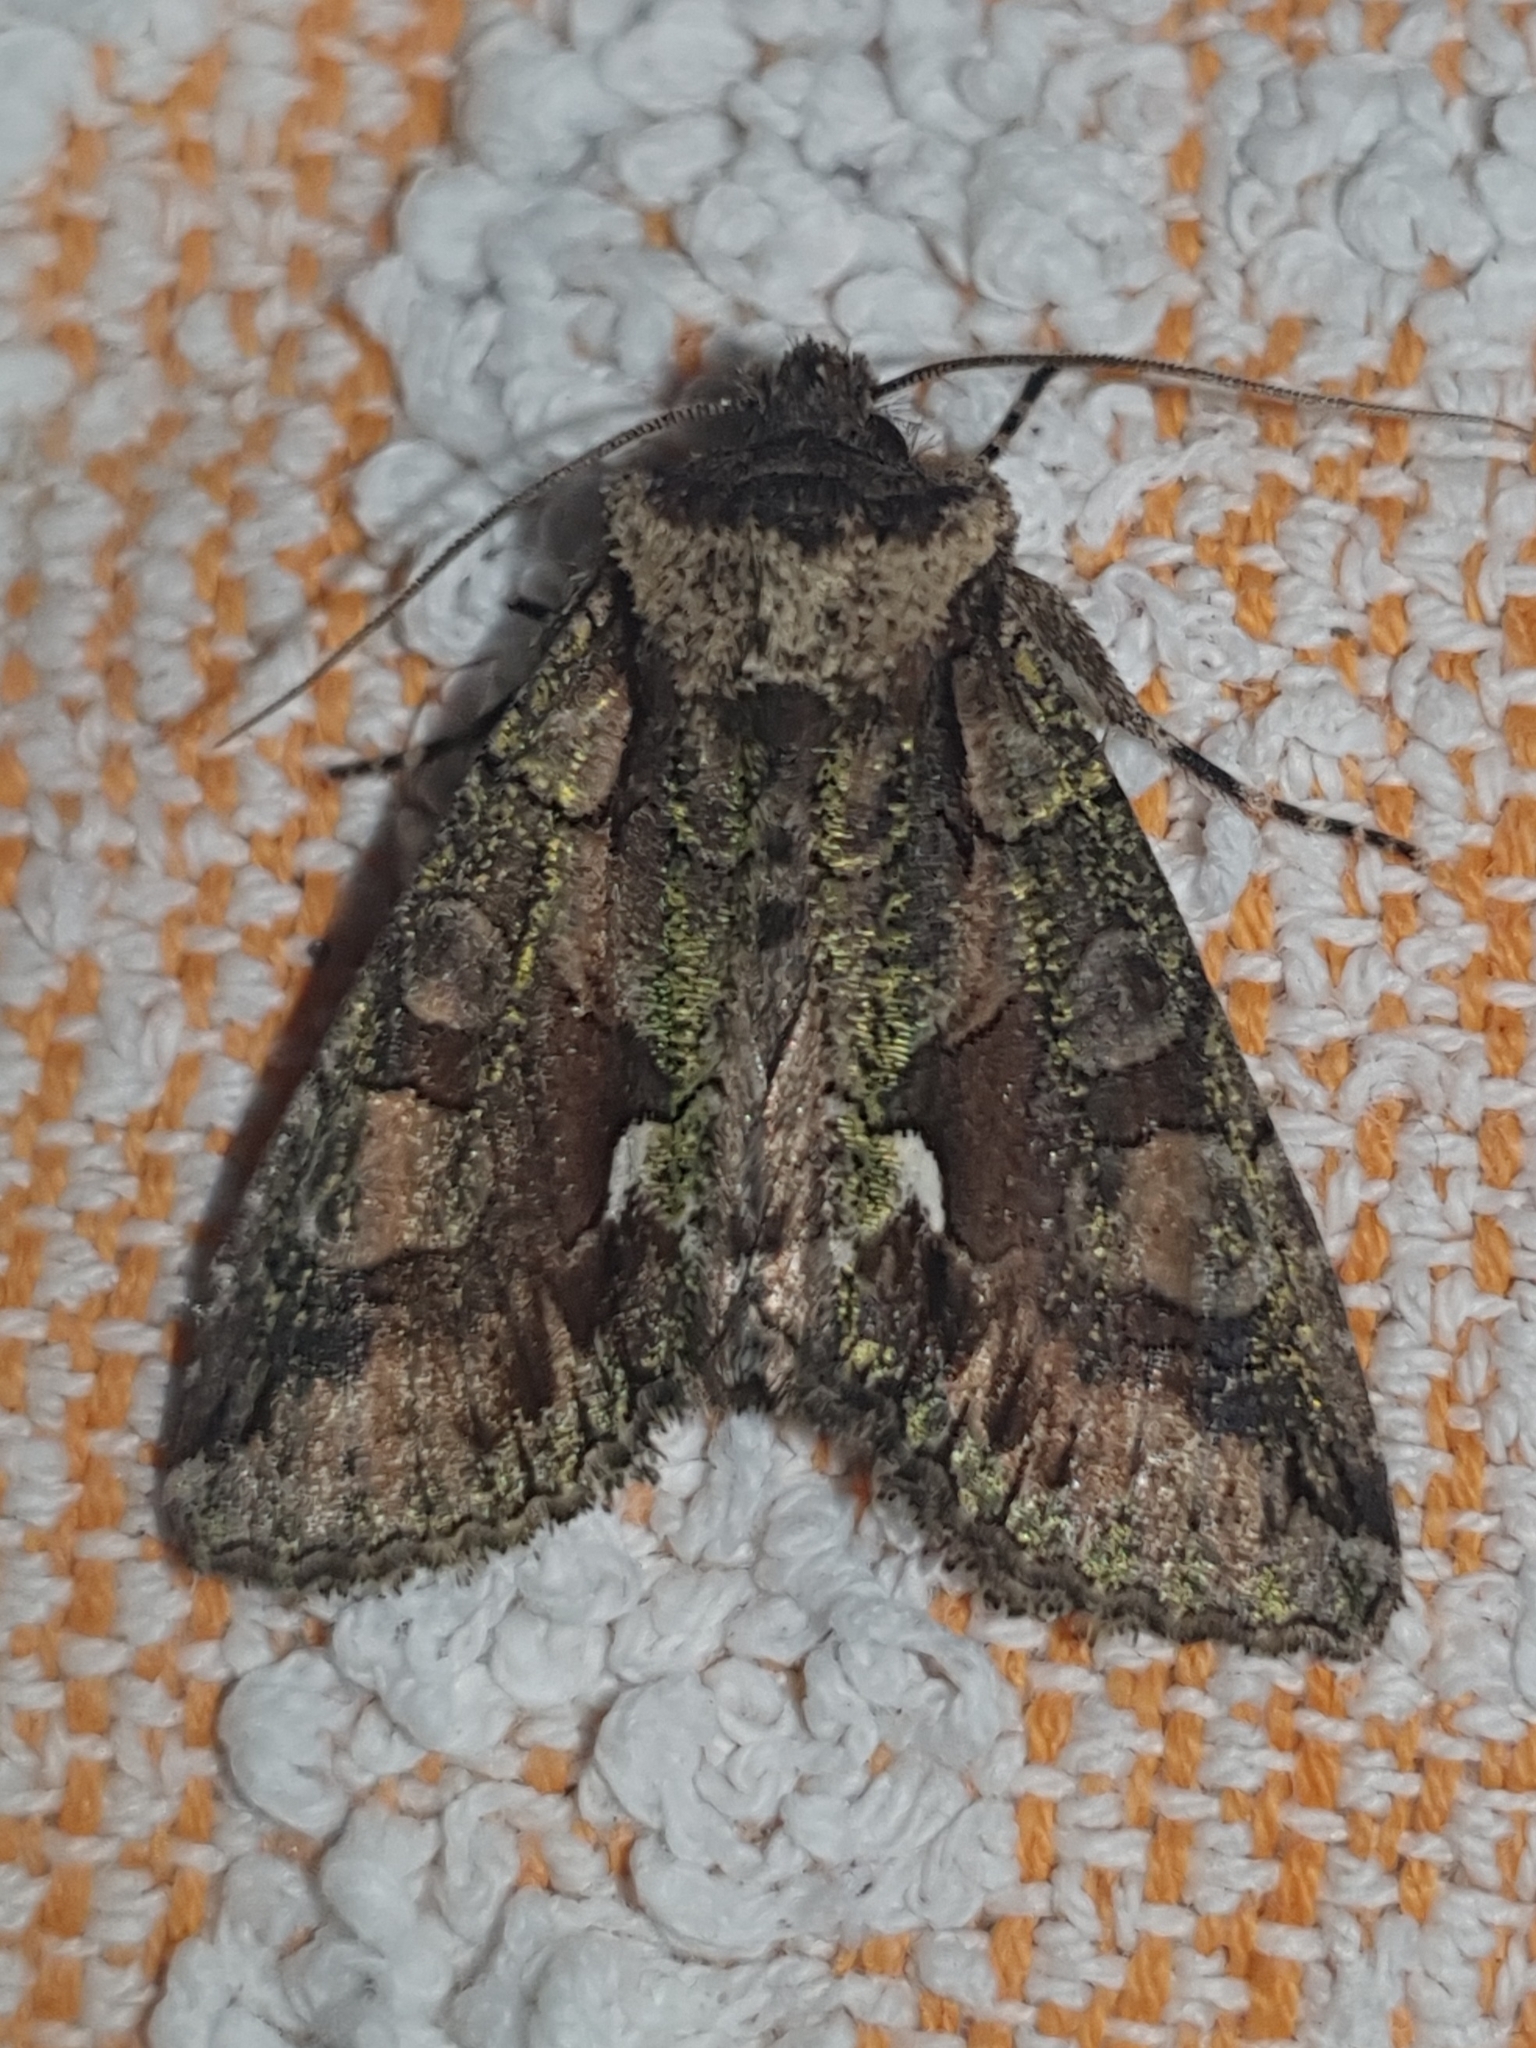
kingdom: Animalia
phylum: Arthropoda
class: Insecta
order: Lepidoptera
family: Noctuidae
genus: Allophyes
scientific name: Allophyes alfaroi
